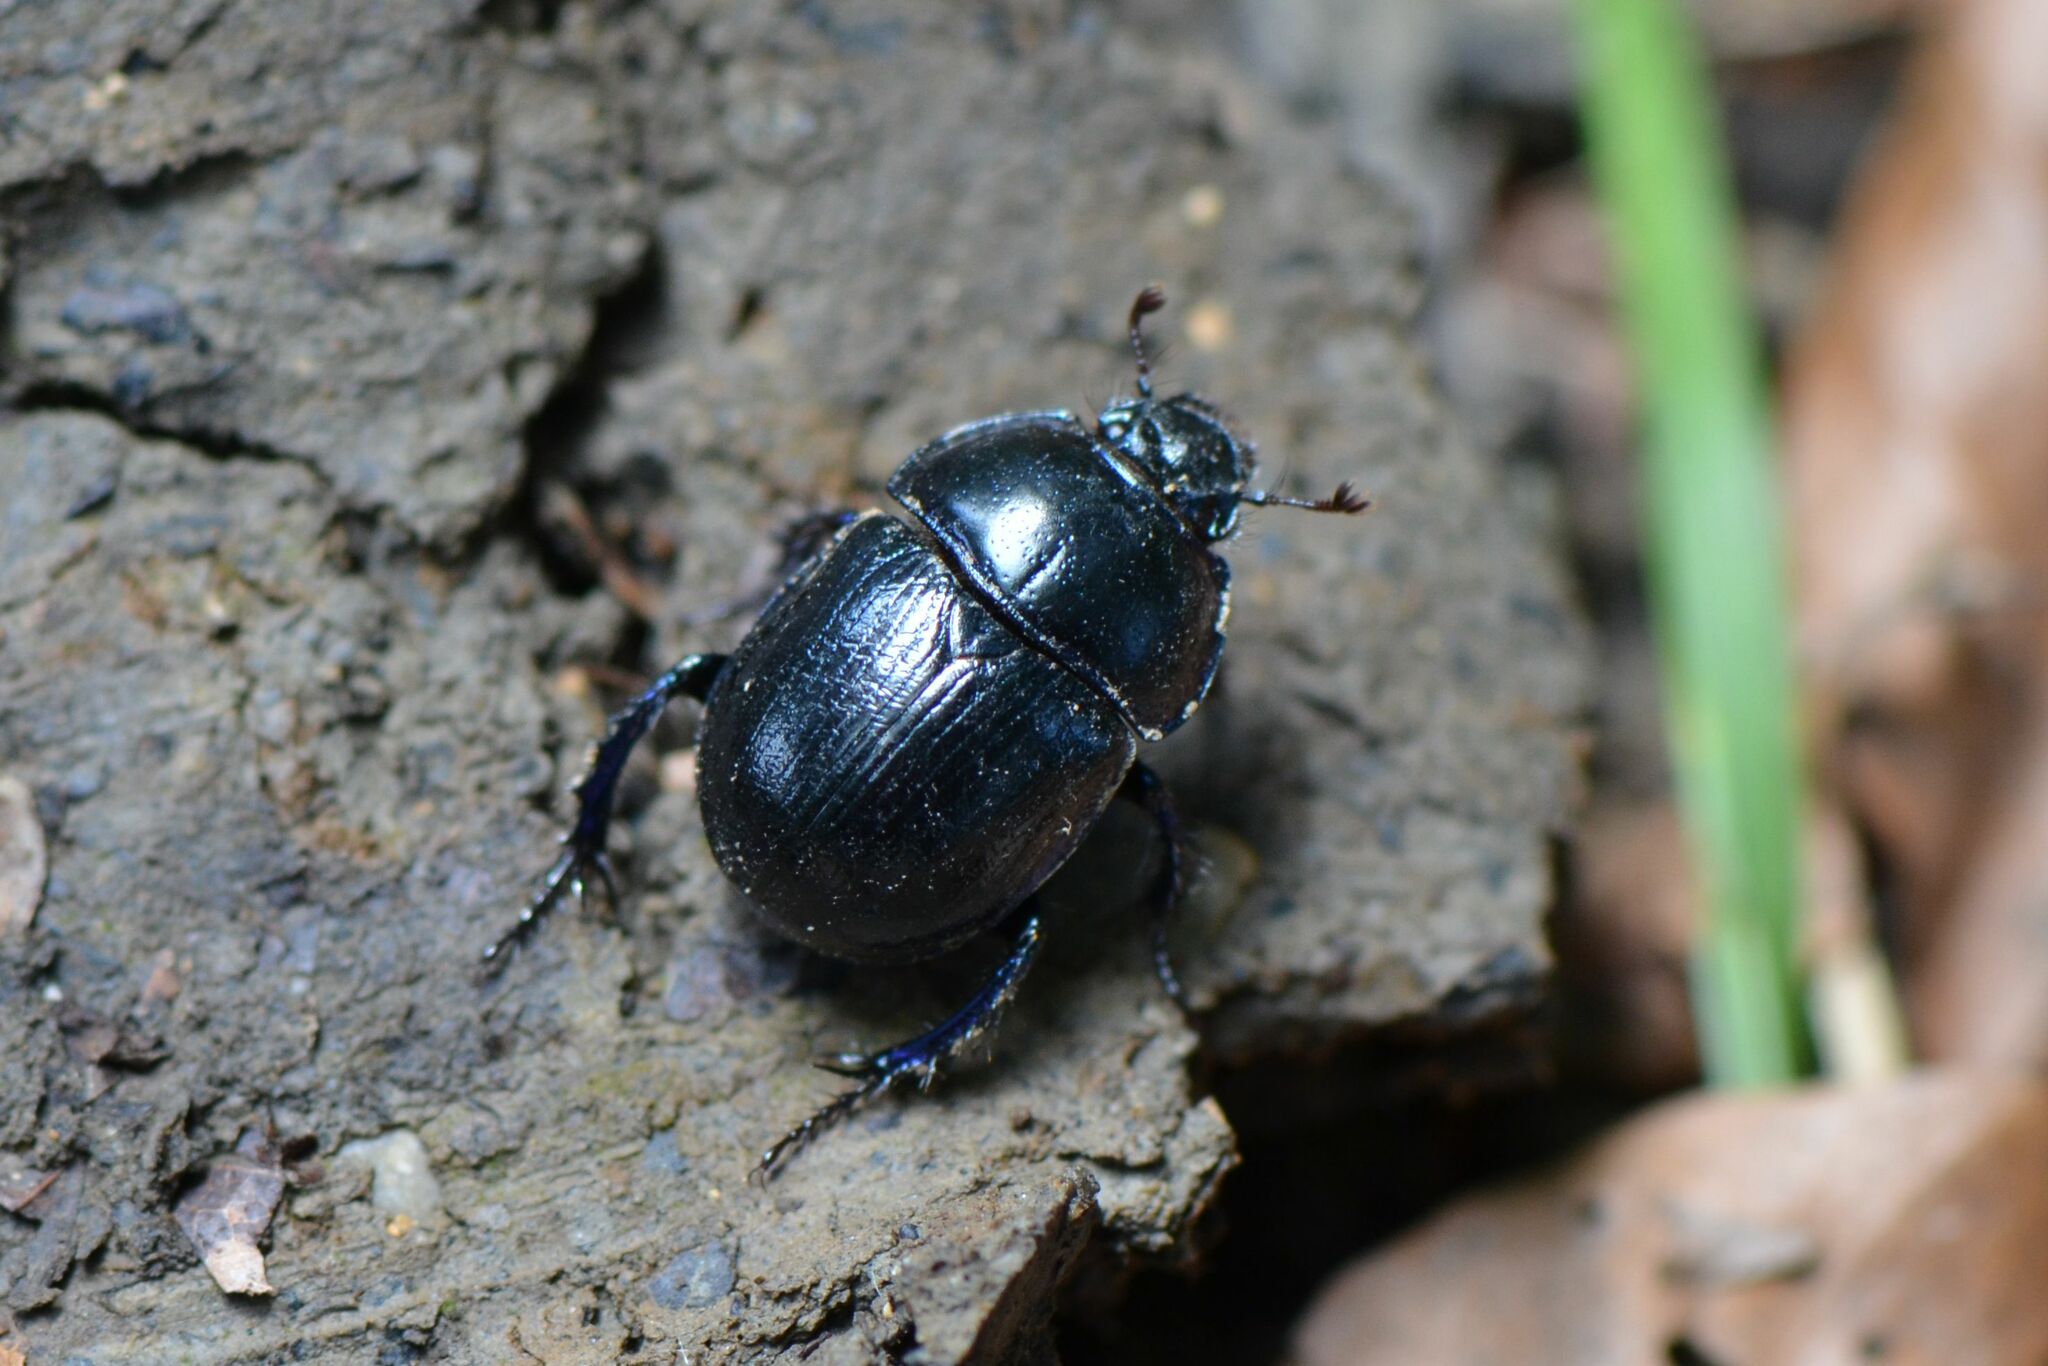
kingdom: Animalia
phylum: Arthropoda
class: Insecta
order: Coleoptera
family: Geotrupidae
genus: Anoplotrupes
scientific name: Anoplotrupes stercorosus
